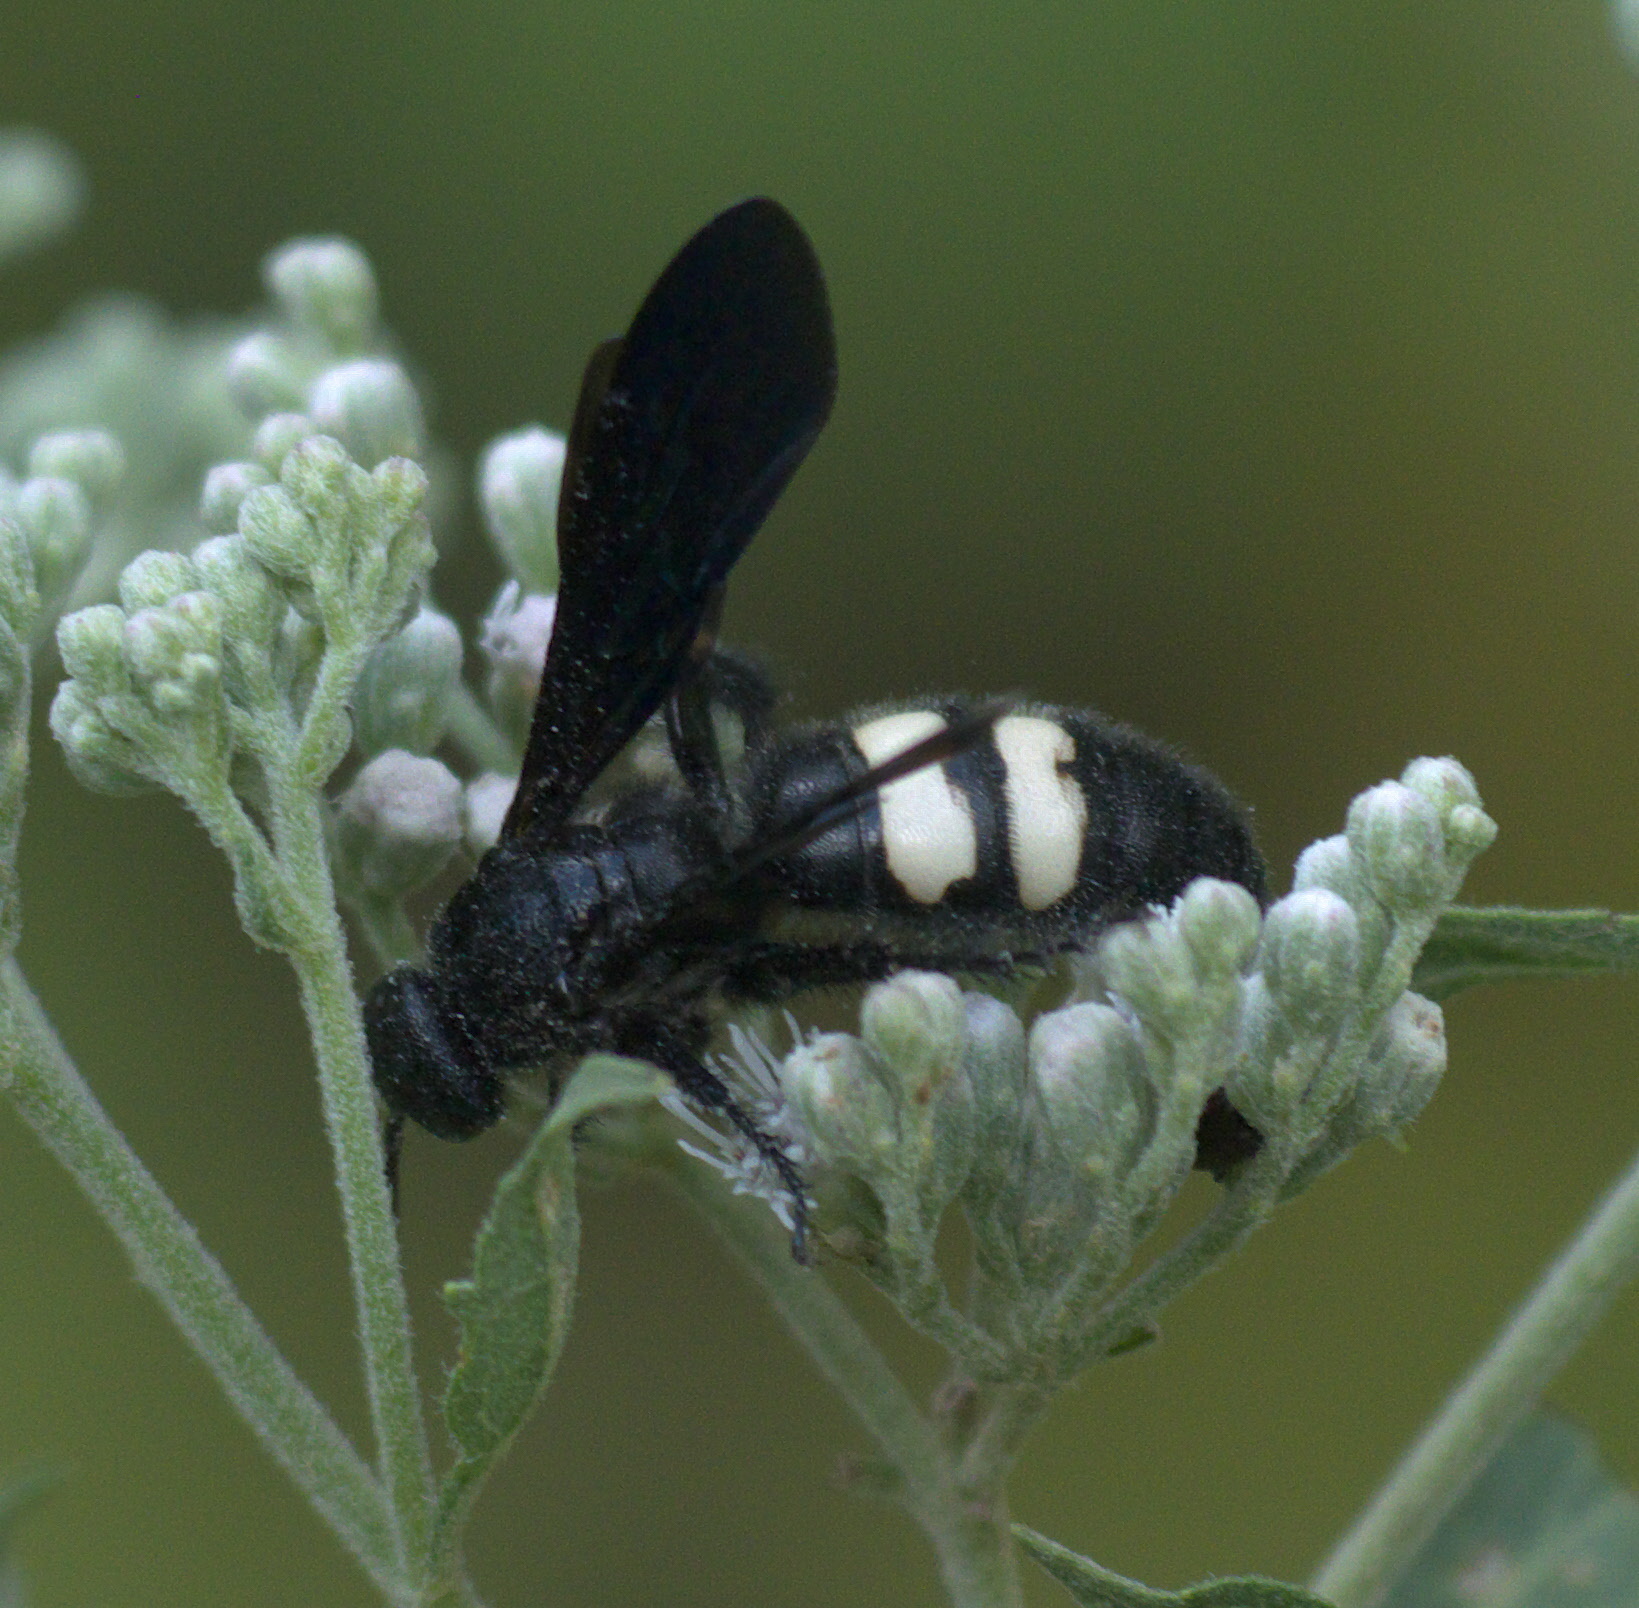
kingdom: Animalia
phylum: Arthropoda
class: Insecta
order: Hymenoptera
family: Scoliidae
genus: Scolia
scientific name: Scolia bicincta
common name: Double-banded scoliid wasp
